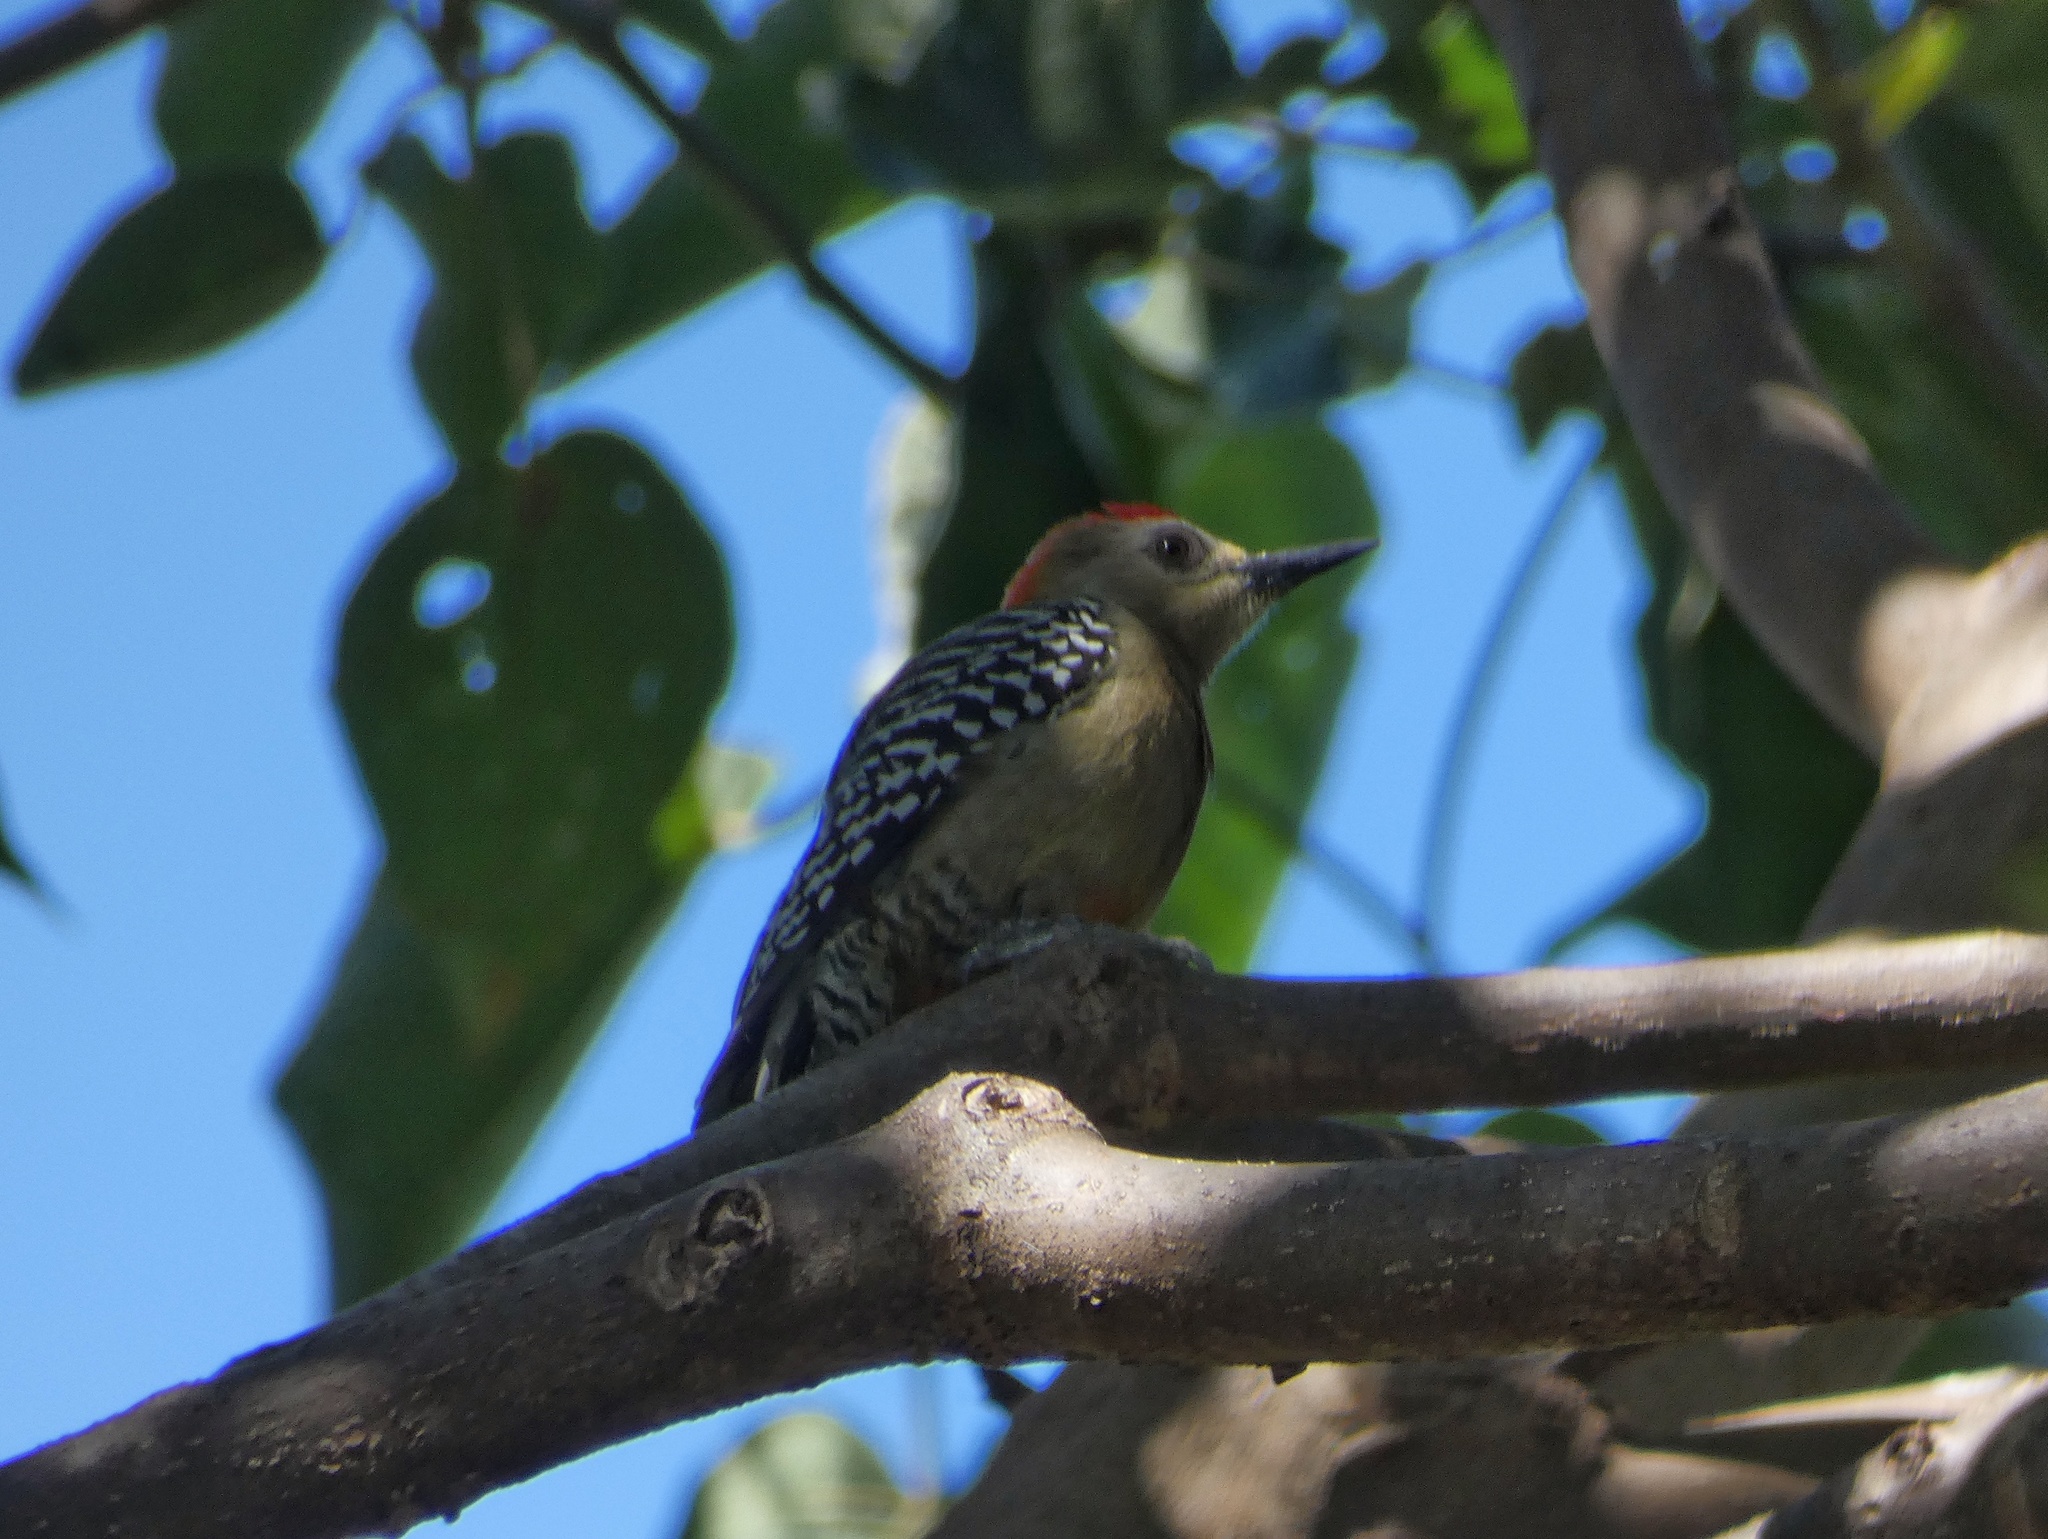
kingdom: Animalia
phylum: Chordata
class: Aves
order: Piciformes
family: Picidae
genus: Melanerpes
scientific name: Melanerpes rubricapillus
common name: Red-crowned woodpecker
